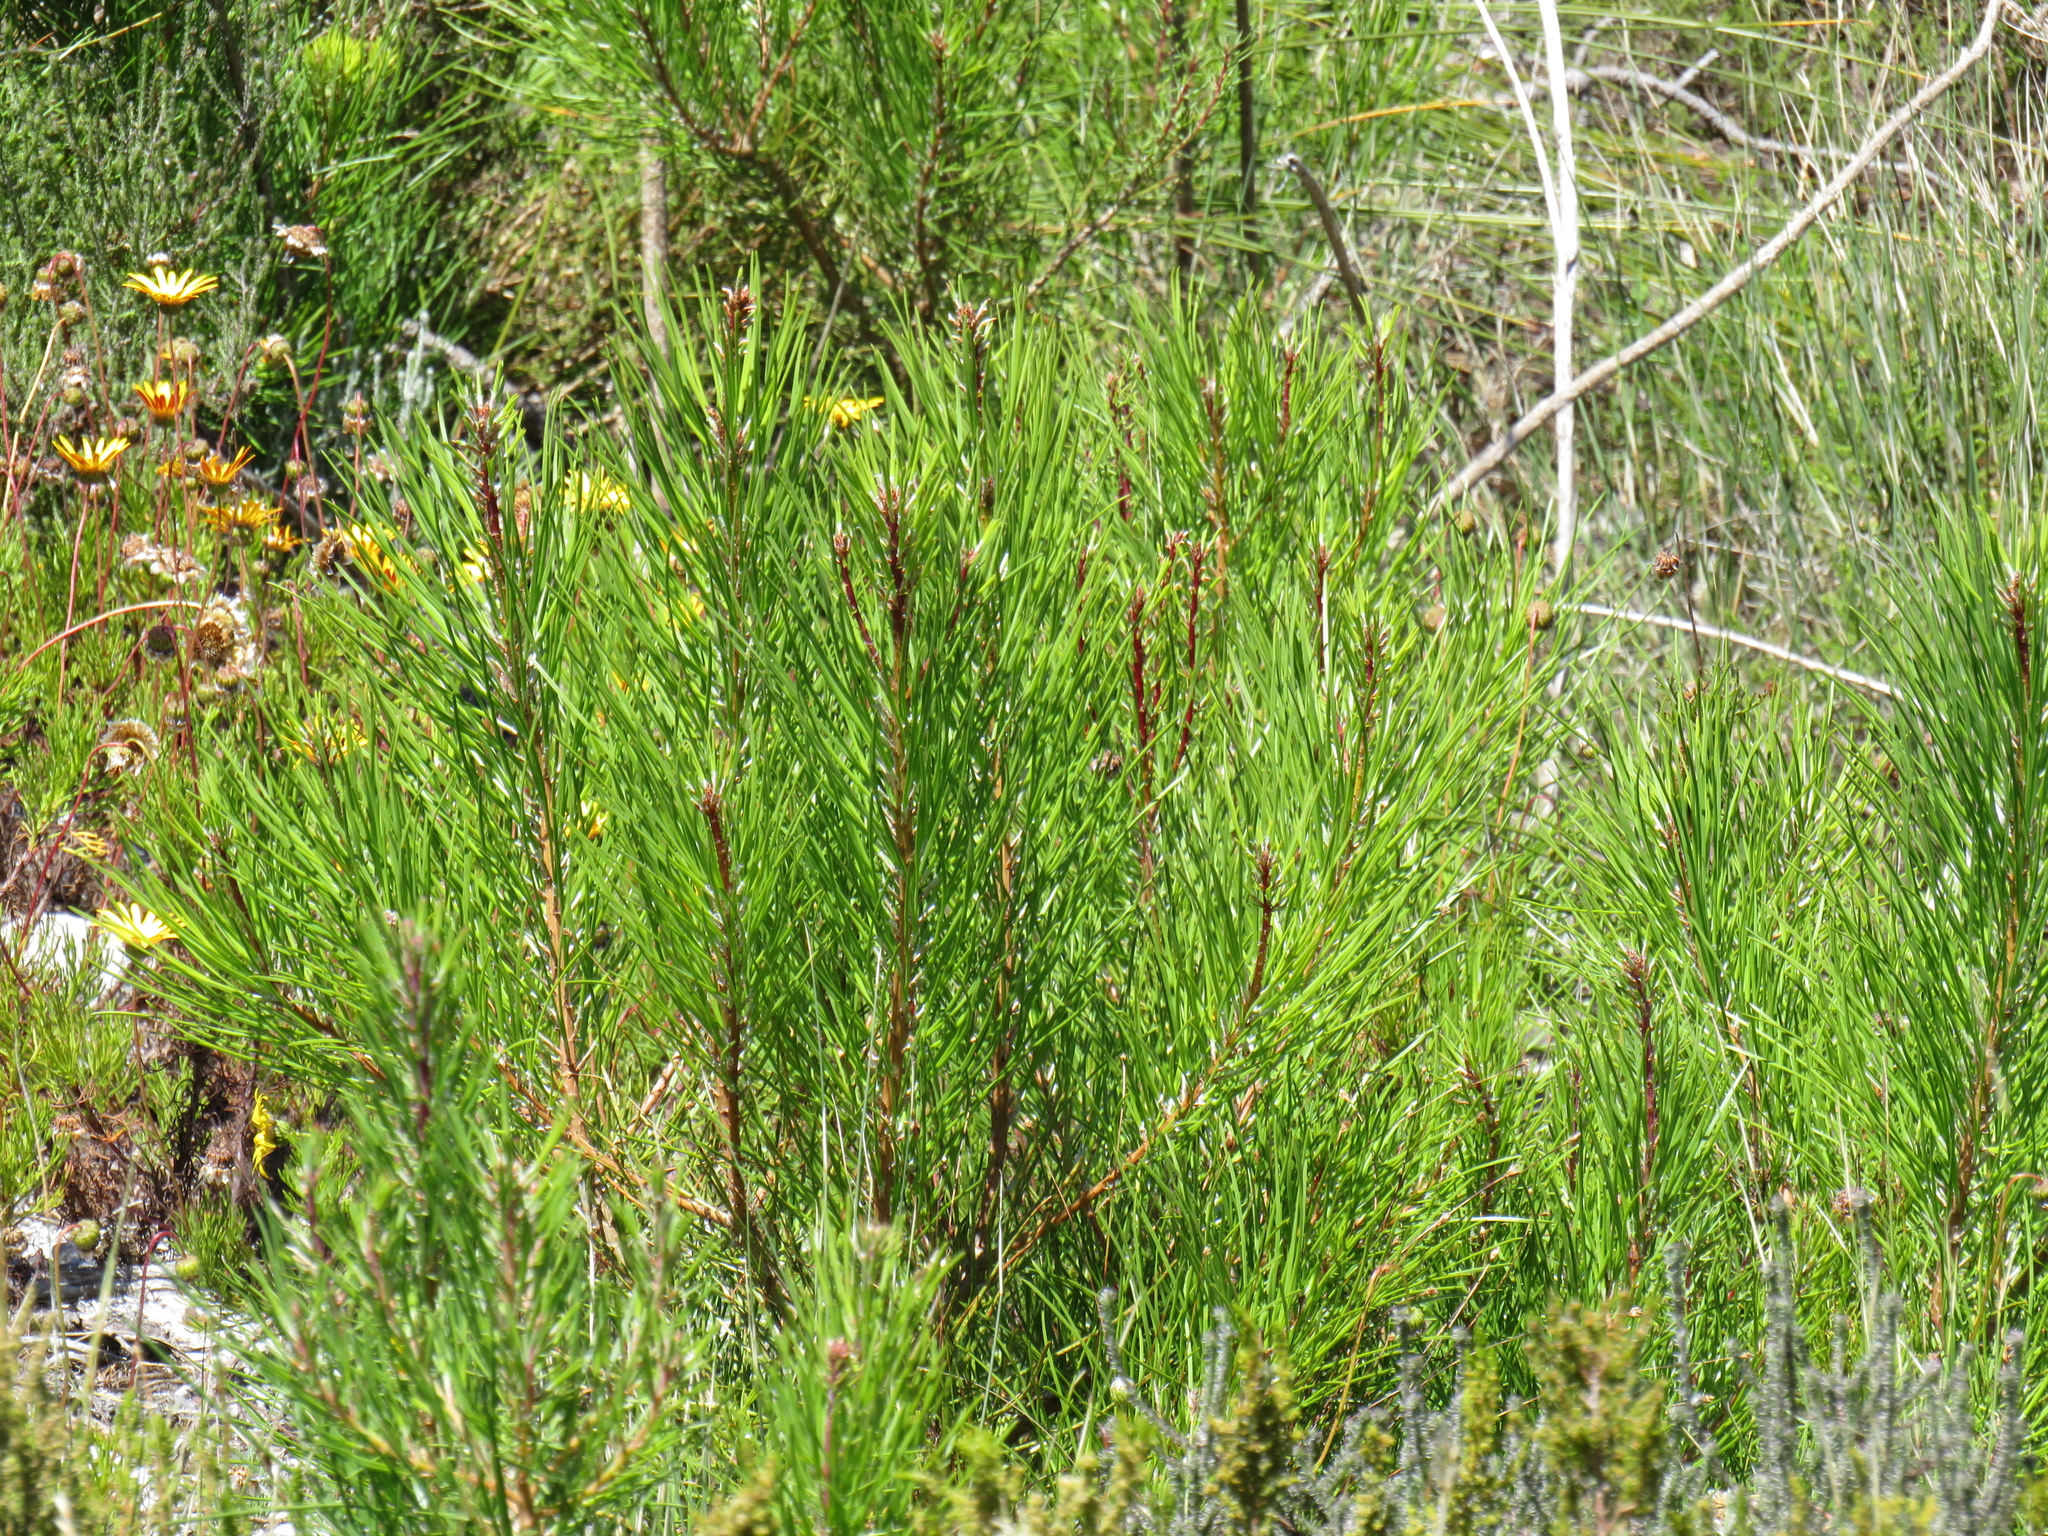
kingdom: Plantae
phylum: Tracheophyta
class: Pinopsida
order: Pinales
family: Pinaceae
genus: Pinus
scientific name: Pinus pinaster
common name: Maritime pine
